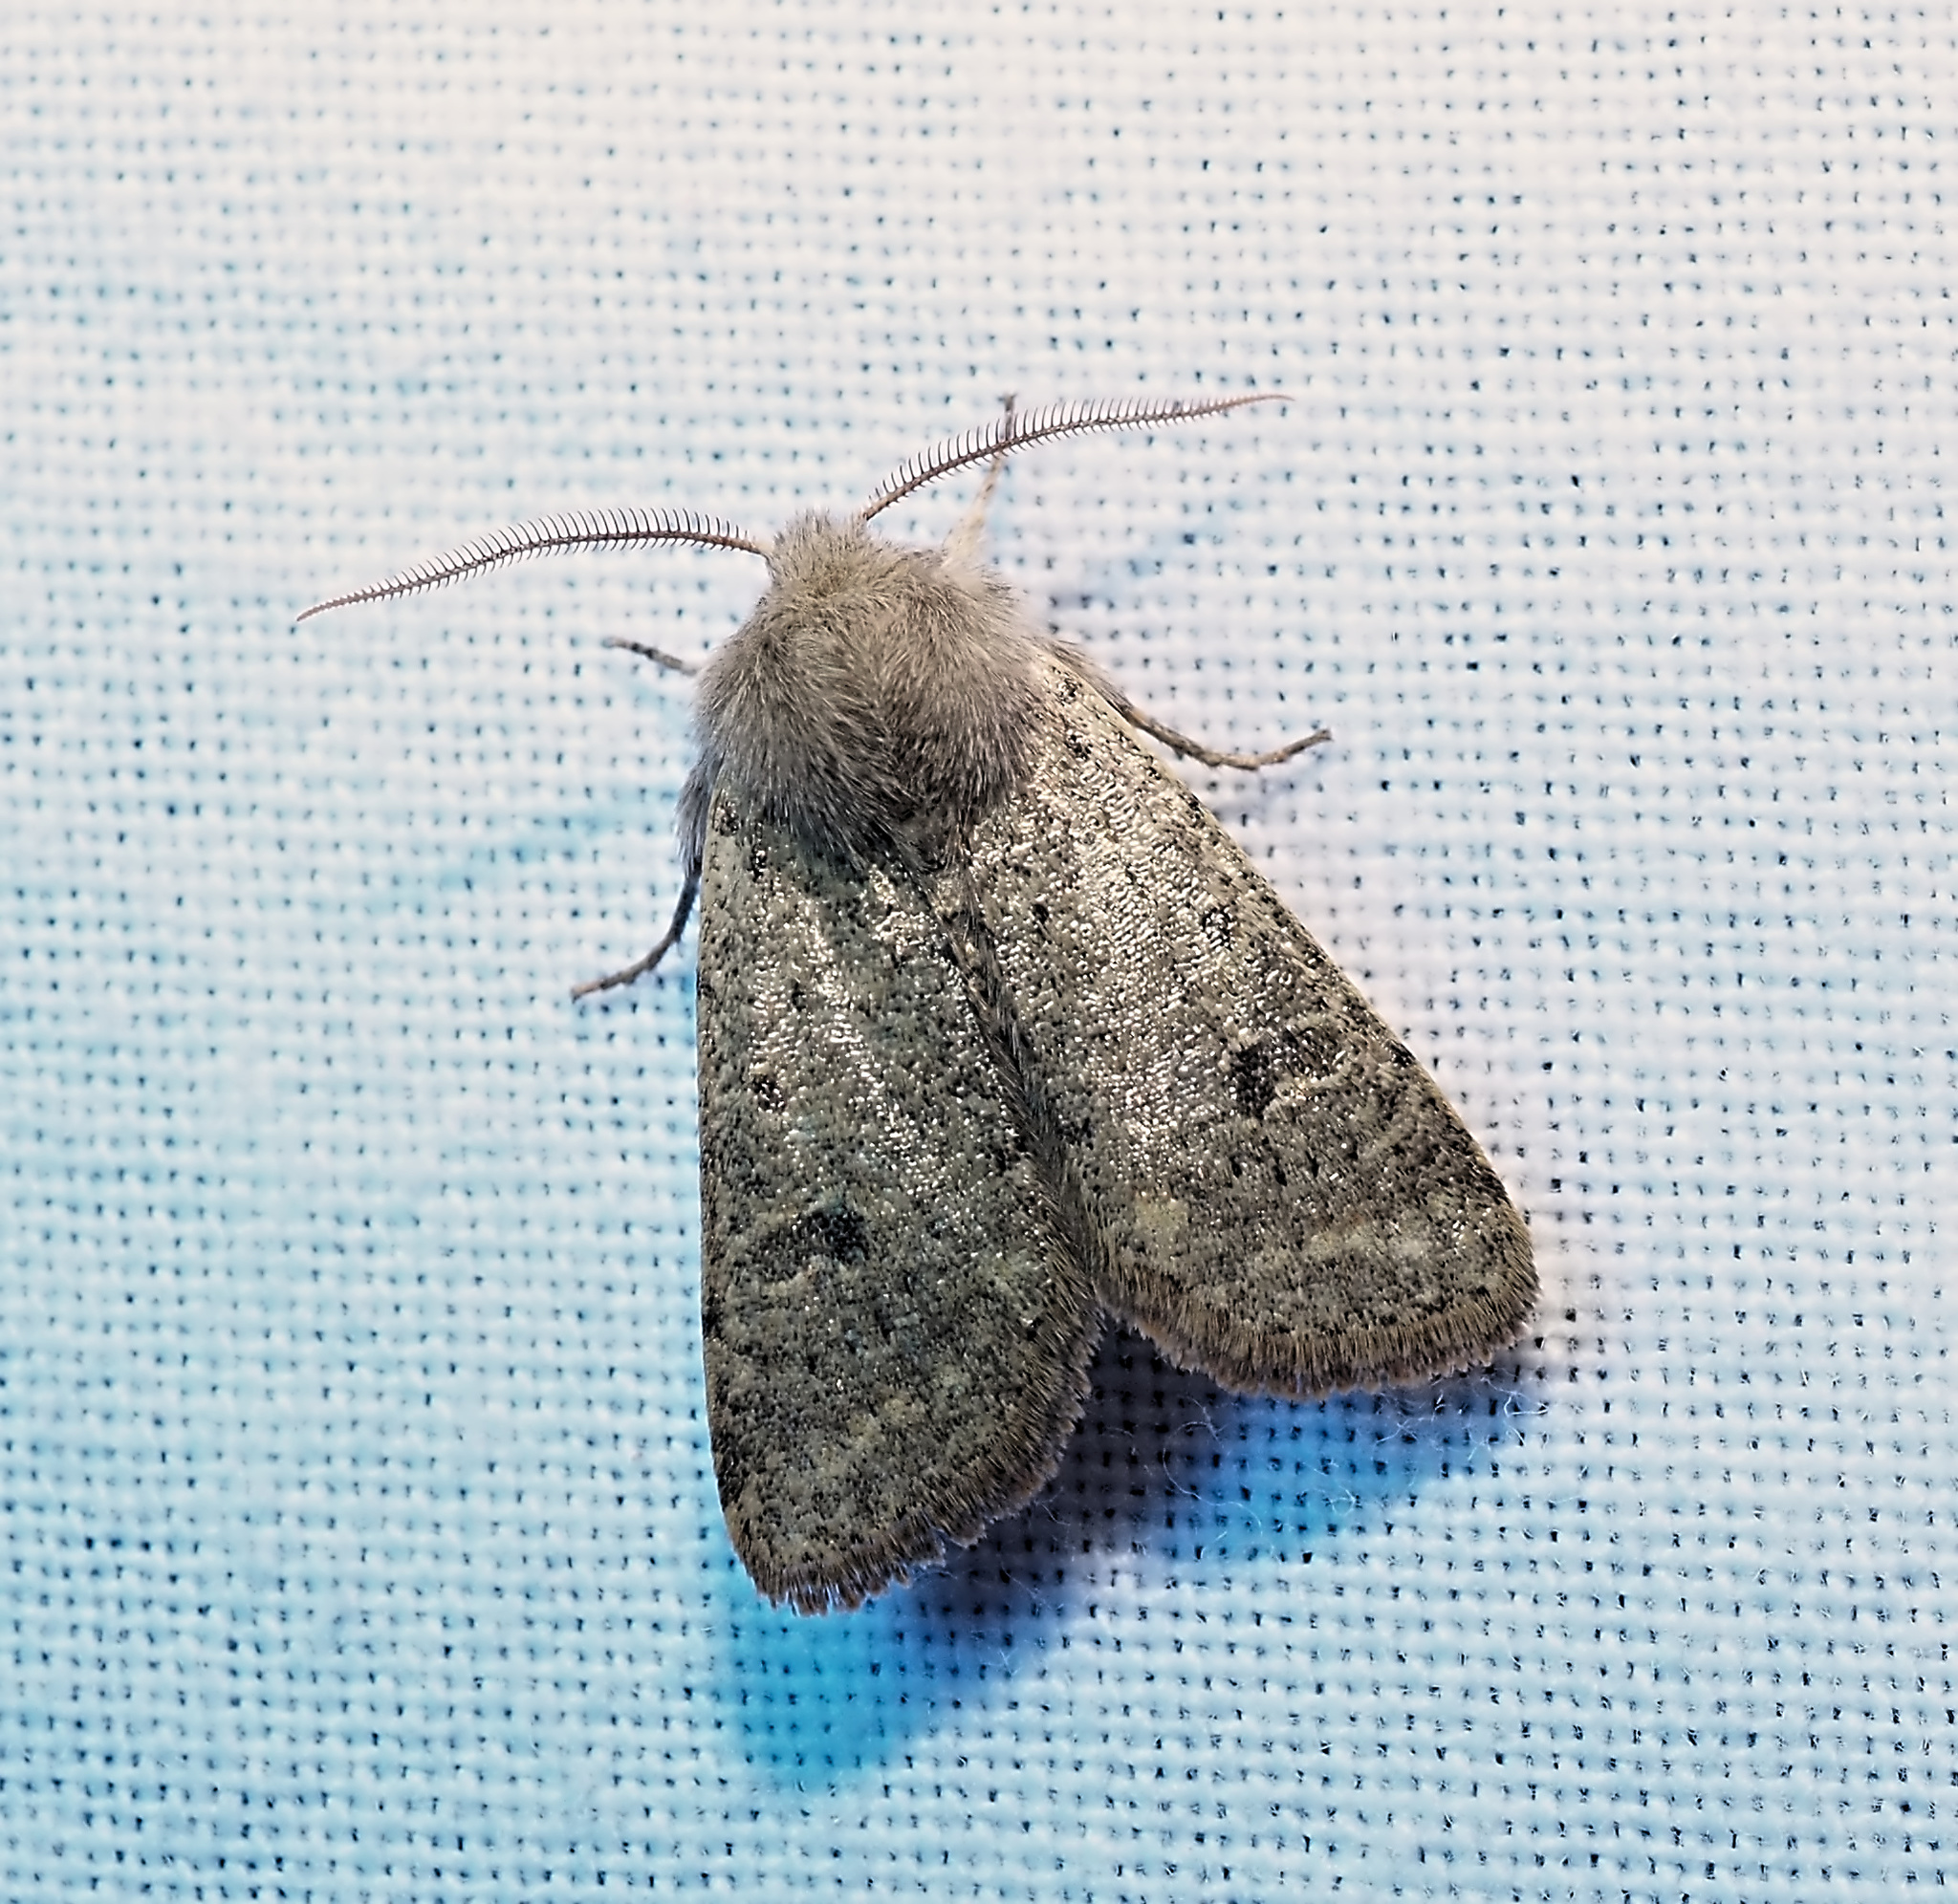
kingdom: Animalia
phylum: Arthropoda
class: Insecta
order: Lepidoptera
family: Noctuidae
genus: Orthosia
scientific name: Orthosia cruda
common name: Small quaker
